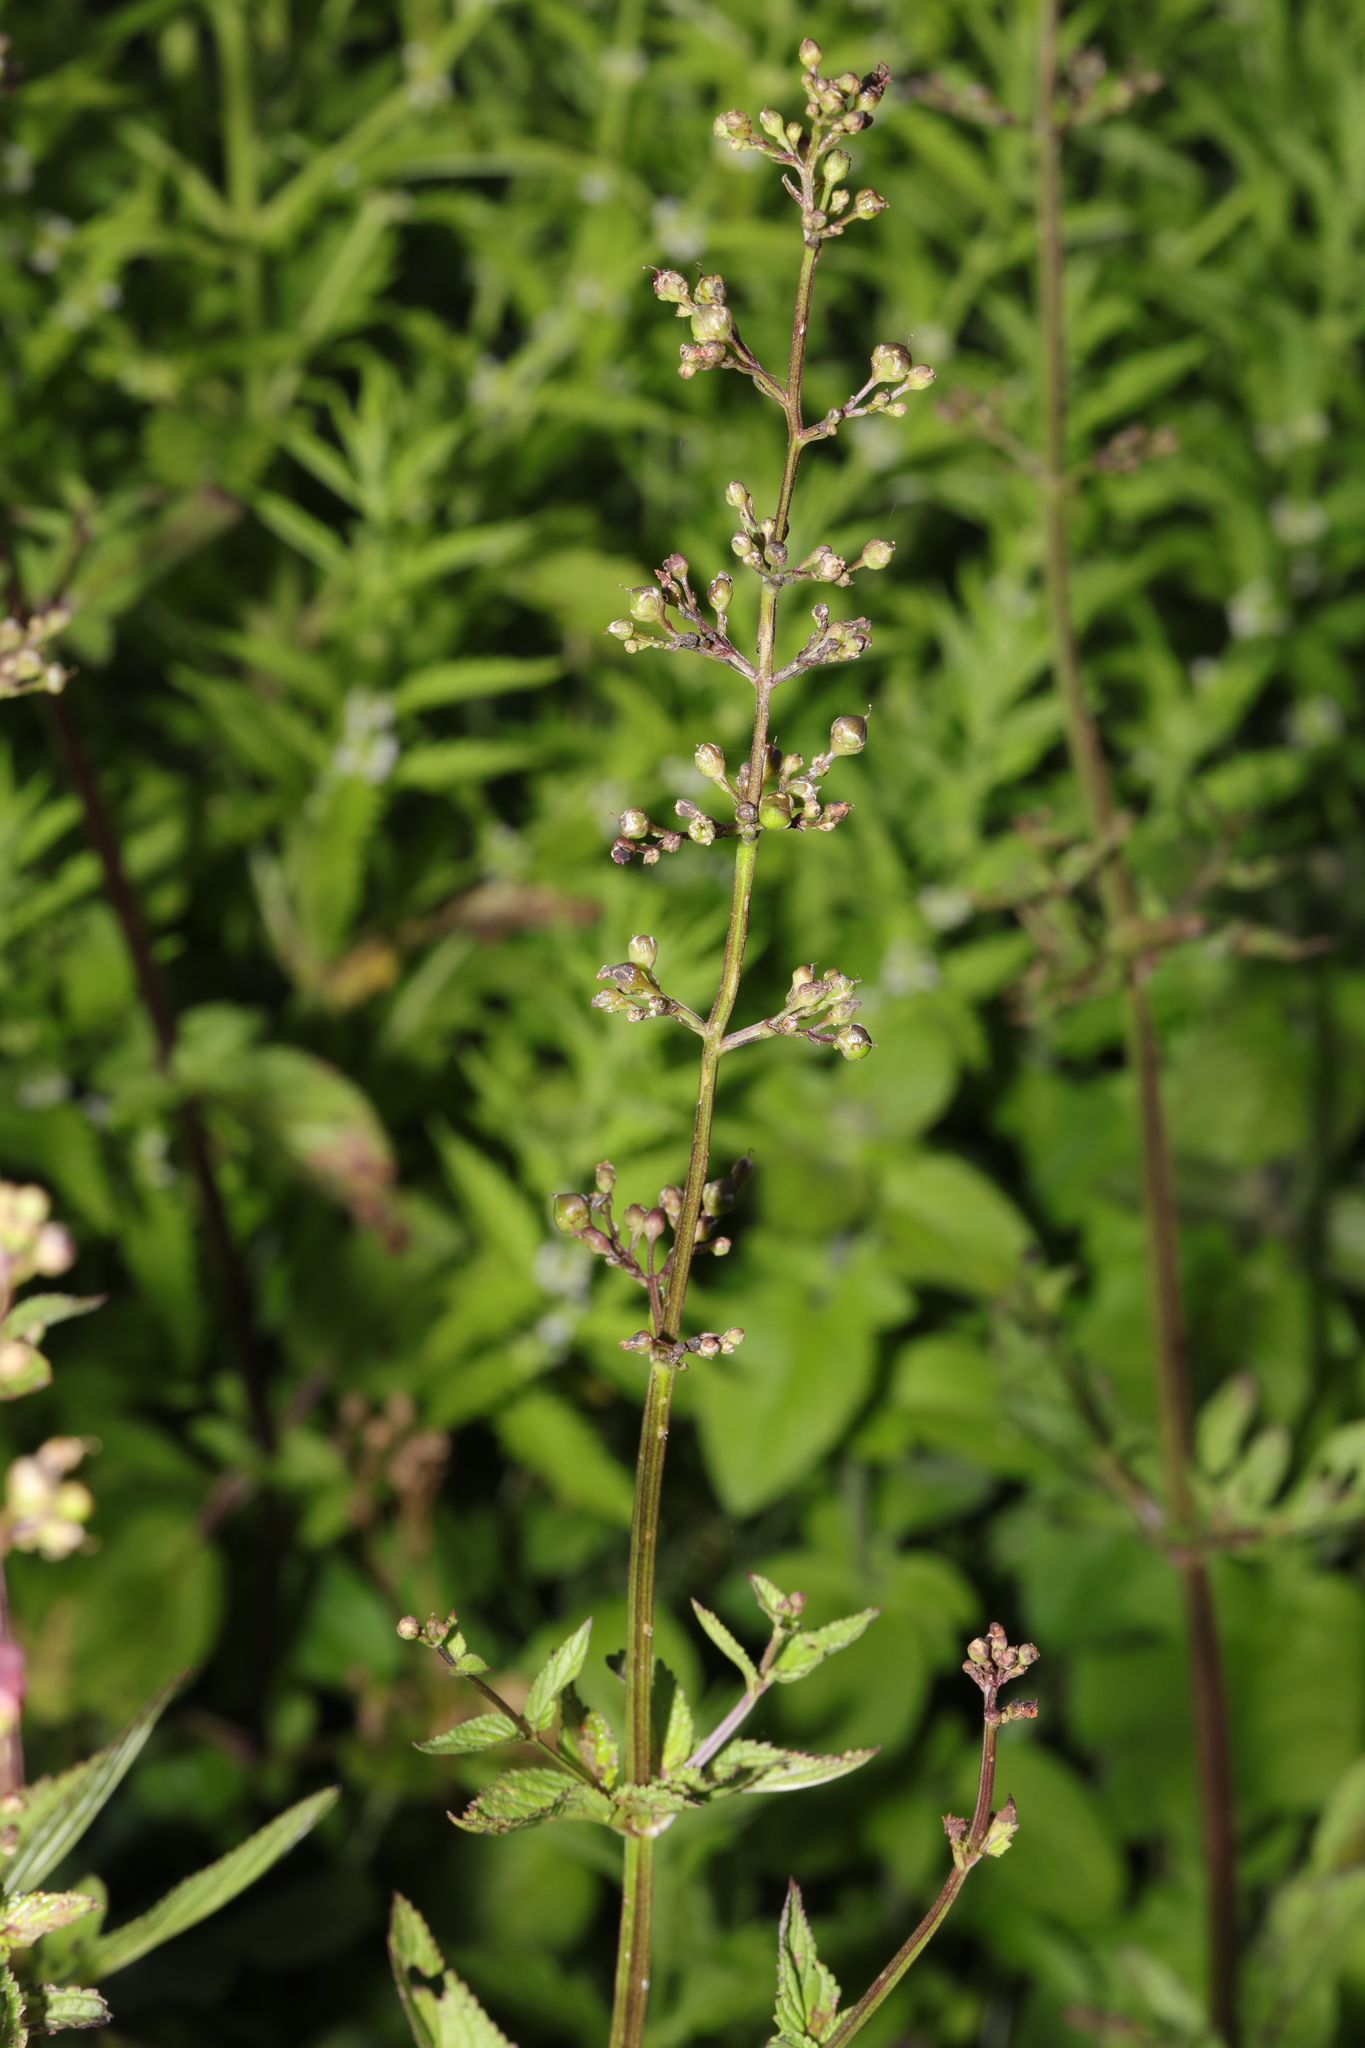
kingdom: Plantae
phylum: Tracheophyta
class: Magnoliopsida
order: Lamiales
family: Scrophulariaceae
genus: Scrophularia
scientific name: Scrophularia auriculata
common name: Water betony
